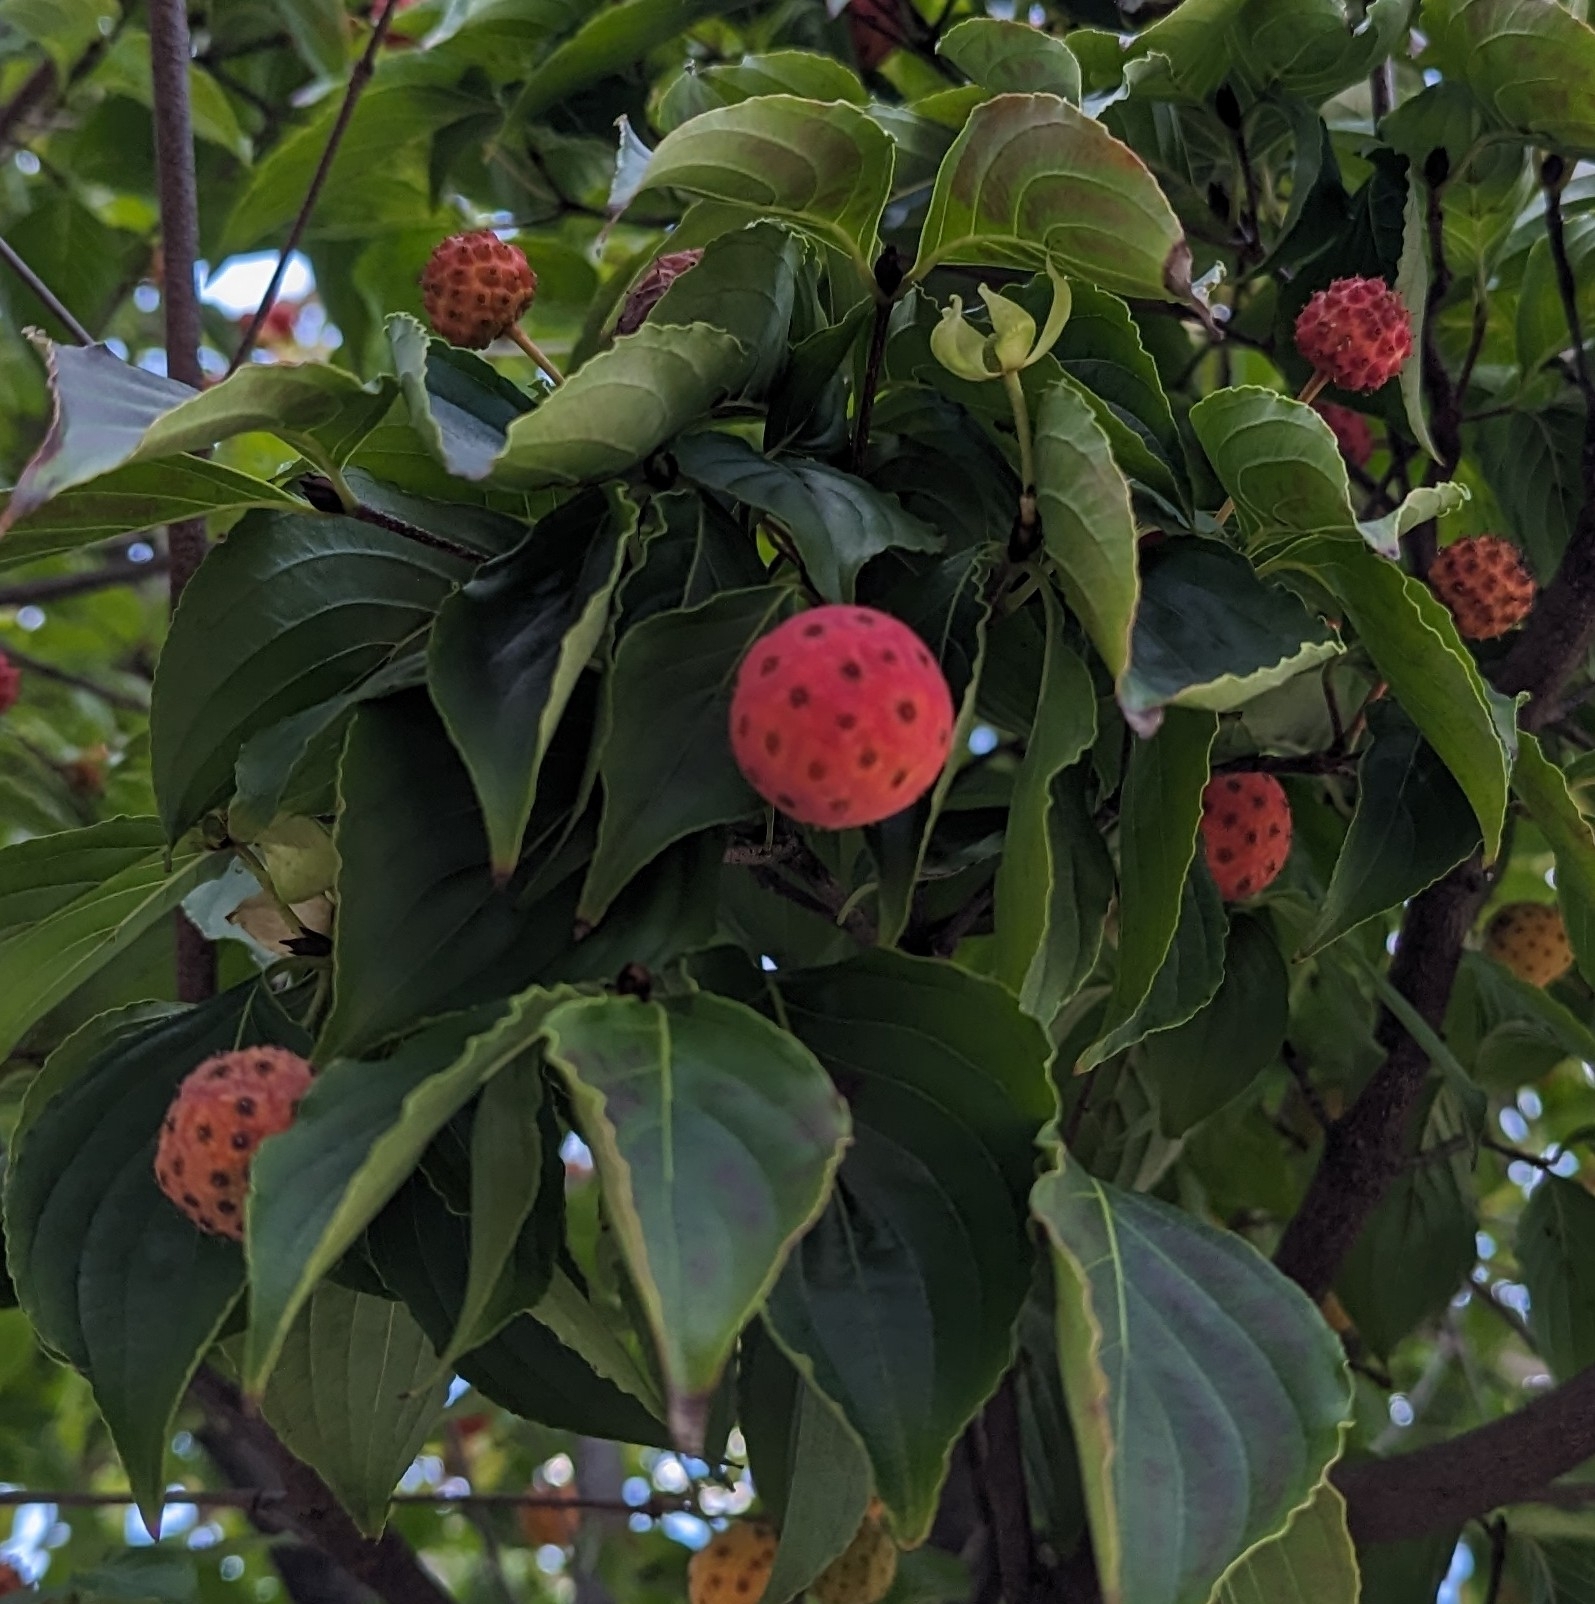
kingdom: Plantae
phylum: Tracheophyta
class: Magnoliopsida
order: Cornales
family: Cornaceae
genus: Cornus
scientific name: Cornus kousa
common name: Japanese dogwood
